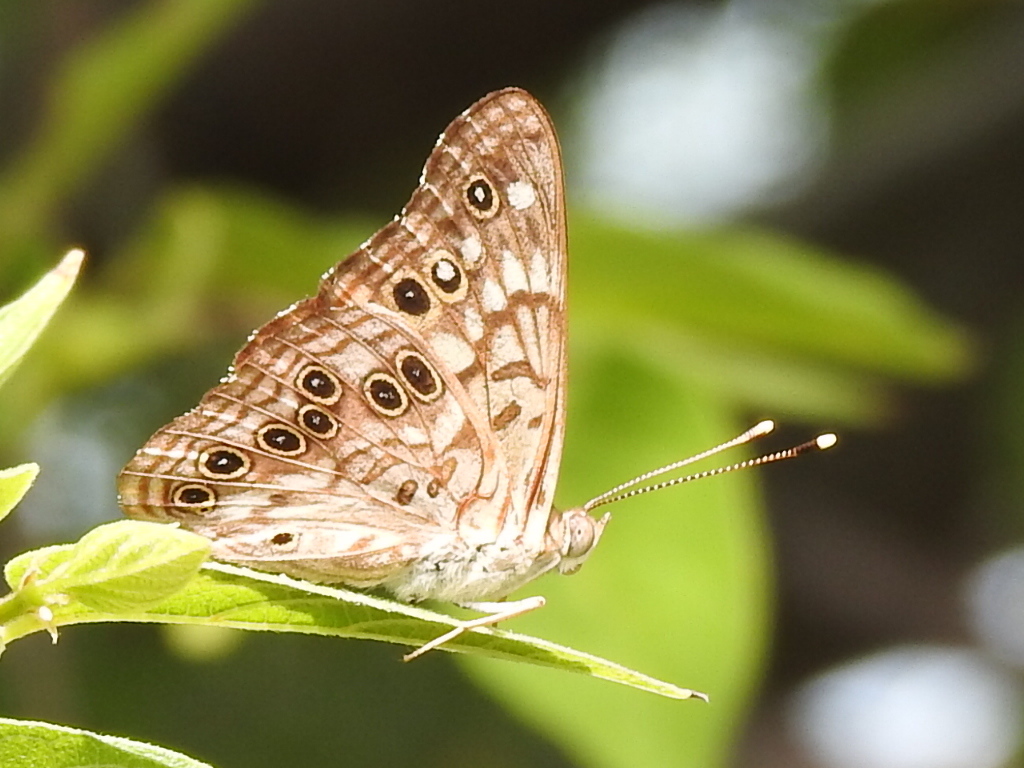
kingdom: Animalia
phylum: Arthropoda
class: Insecta
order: Lepidoptera
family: Nymphalidae
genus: Asterocampa
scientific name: Asterocampa celtis
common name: Hackberry emperor
